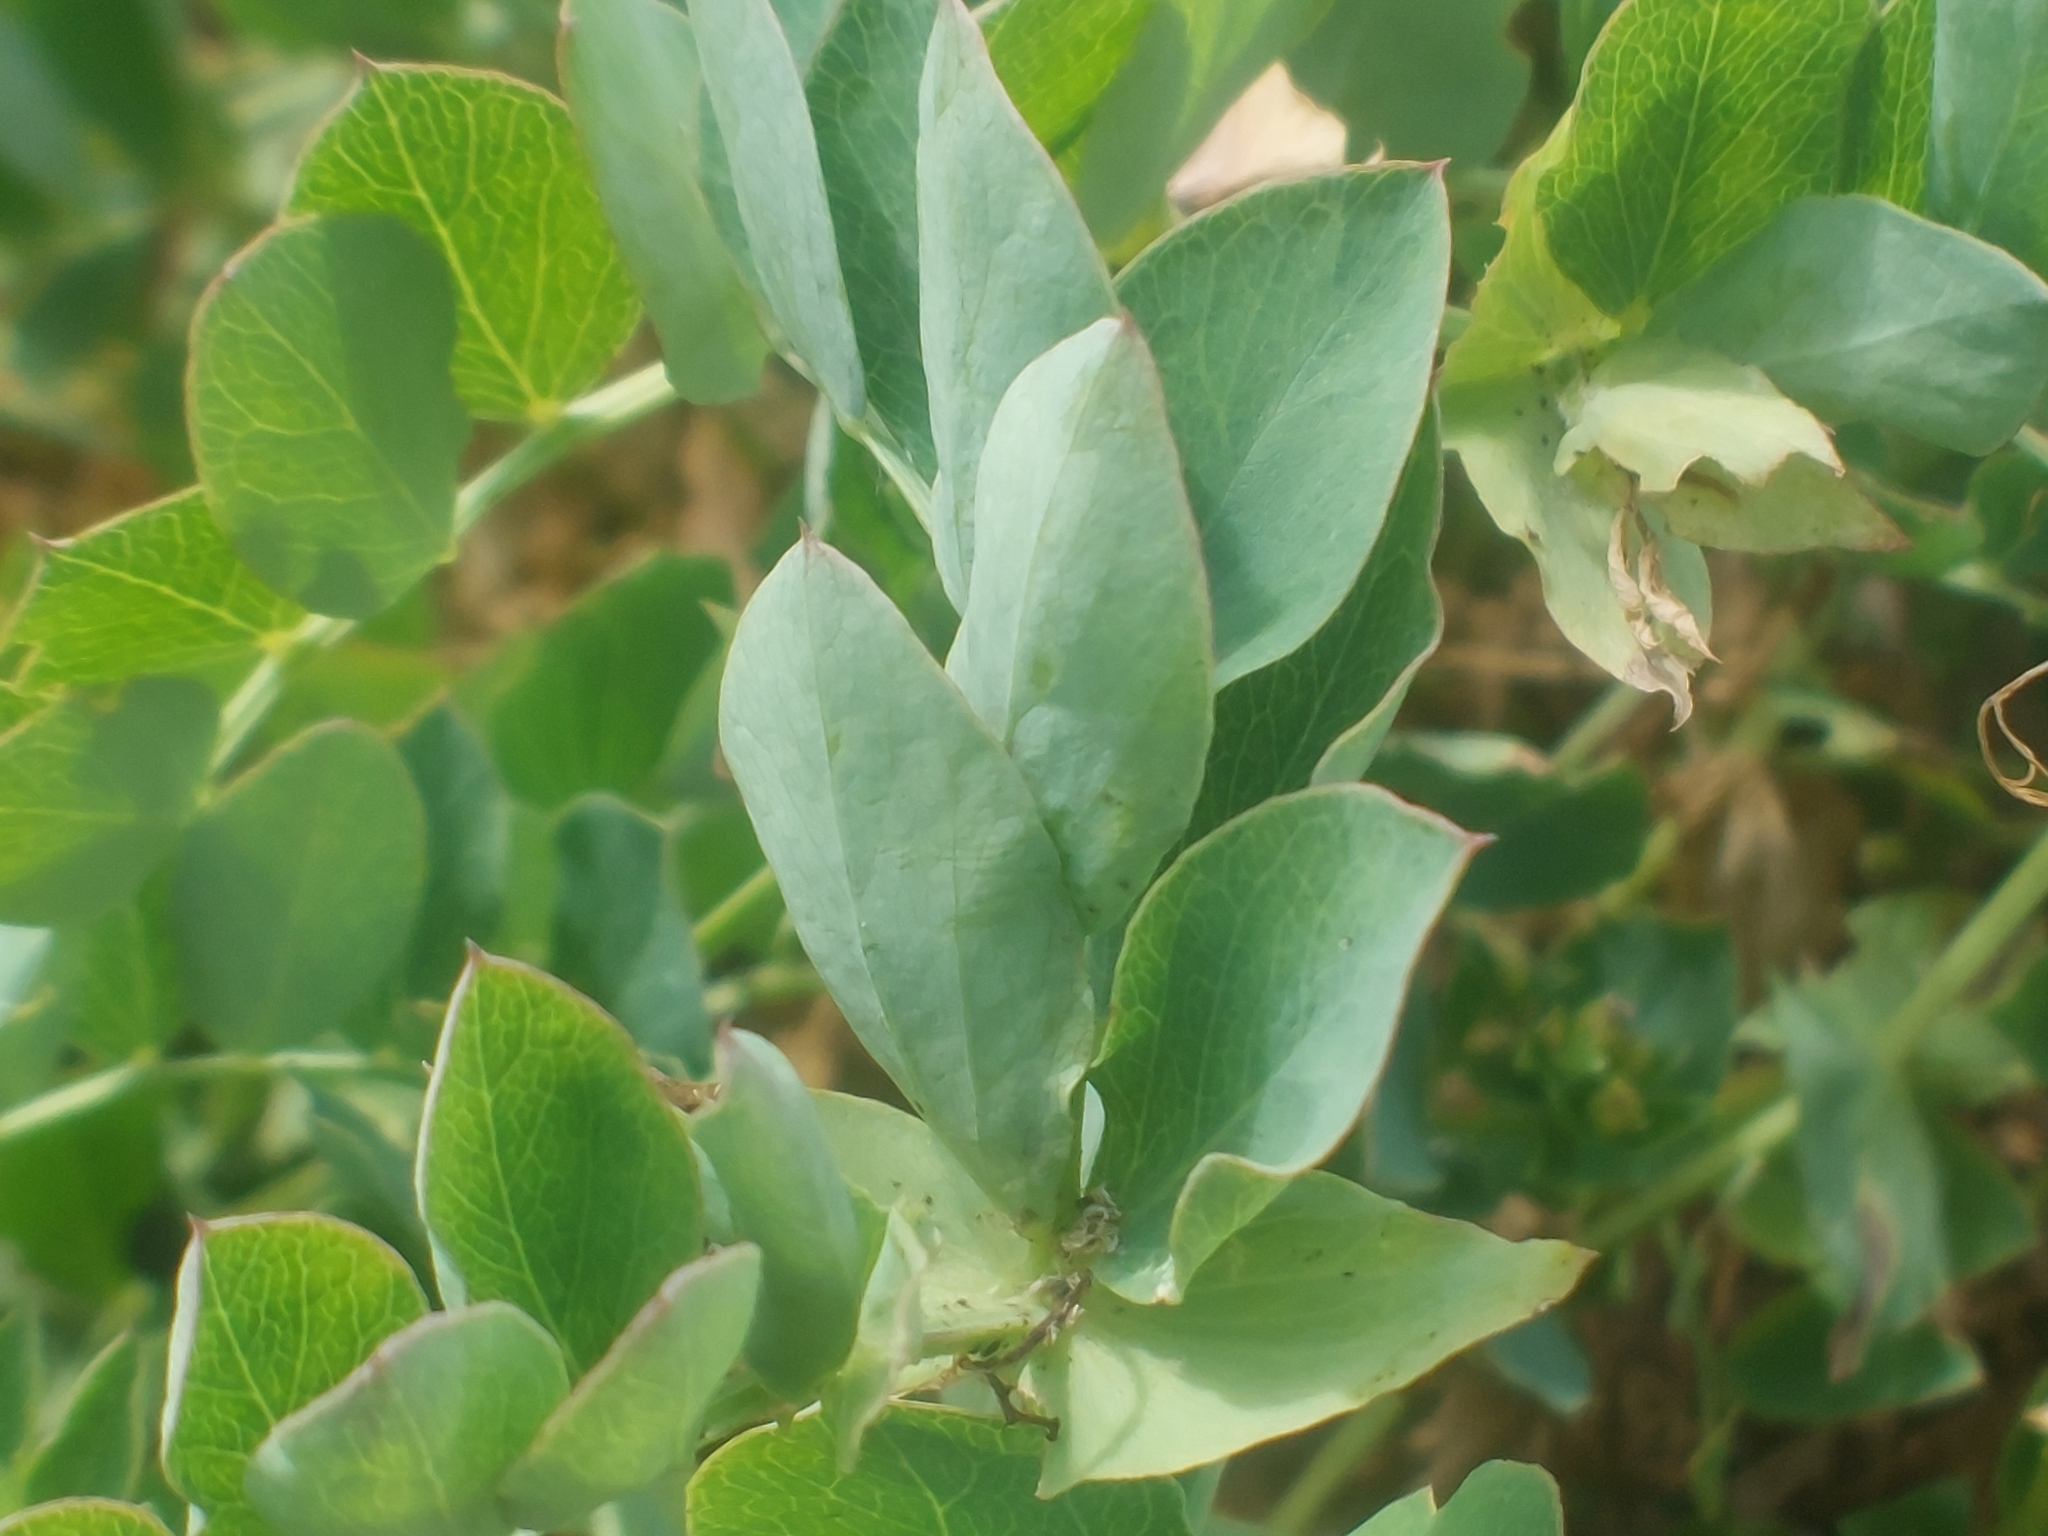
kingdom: Plantae
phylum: Tracheophyta
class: Magnoliopsida
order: Fabales
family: Fabaceae
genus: Lathyrus
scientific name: Lathyrus japonicus
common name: Sea pea
